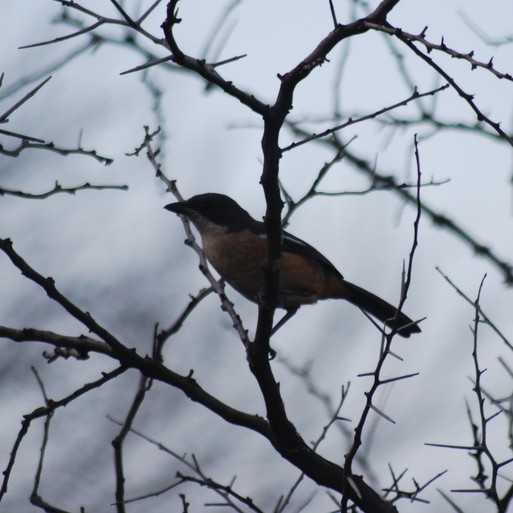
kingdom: Animalia
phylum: Chordata
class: Aves
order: Passeriformes
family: Malaconotidae
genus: Laniarius
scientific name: Laniarius ferrugineus
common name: Southern boubou
